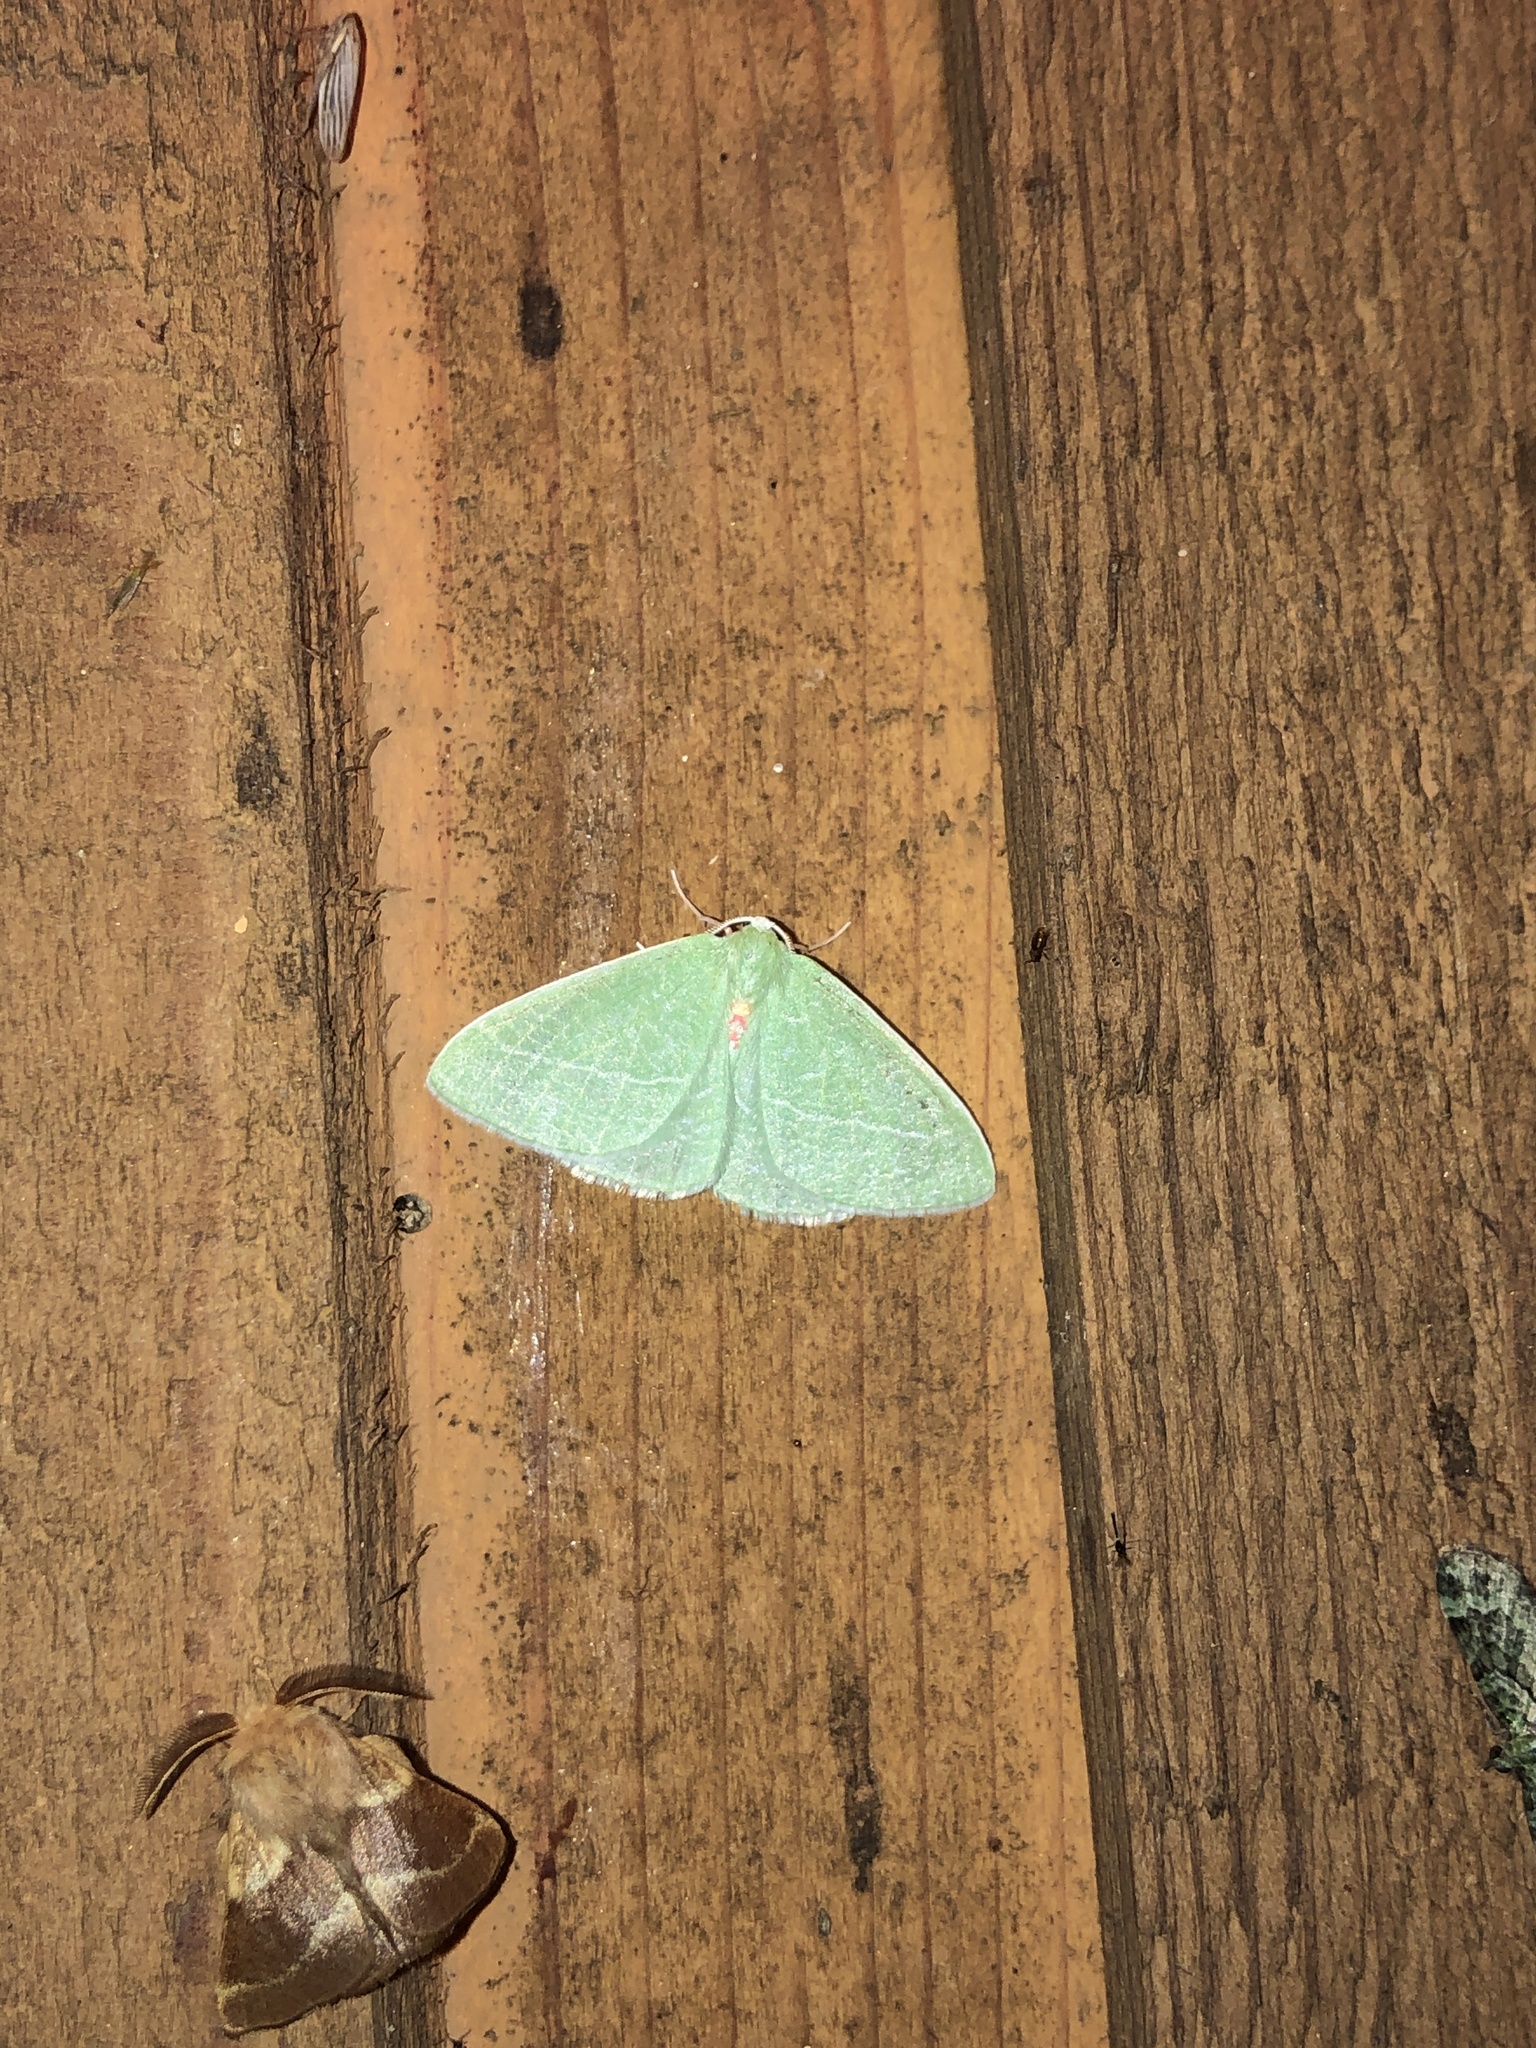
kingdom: Animalia
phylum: Arthropoda
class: Insecta
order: Lepidoptera
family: Geometridae
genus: Chlorosea
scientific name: Chlorosea banksaria
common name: Bank's emerald moth
